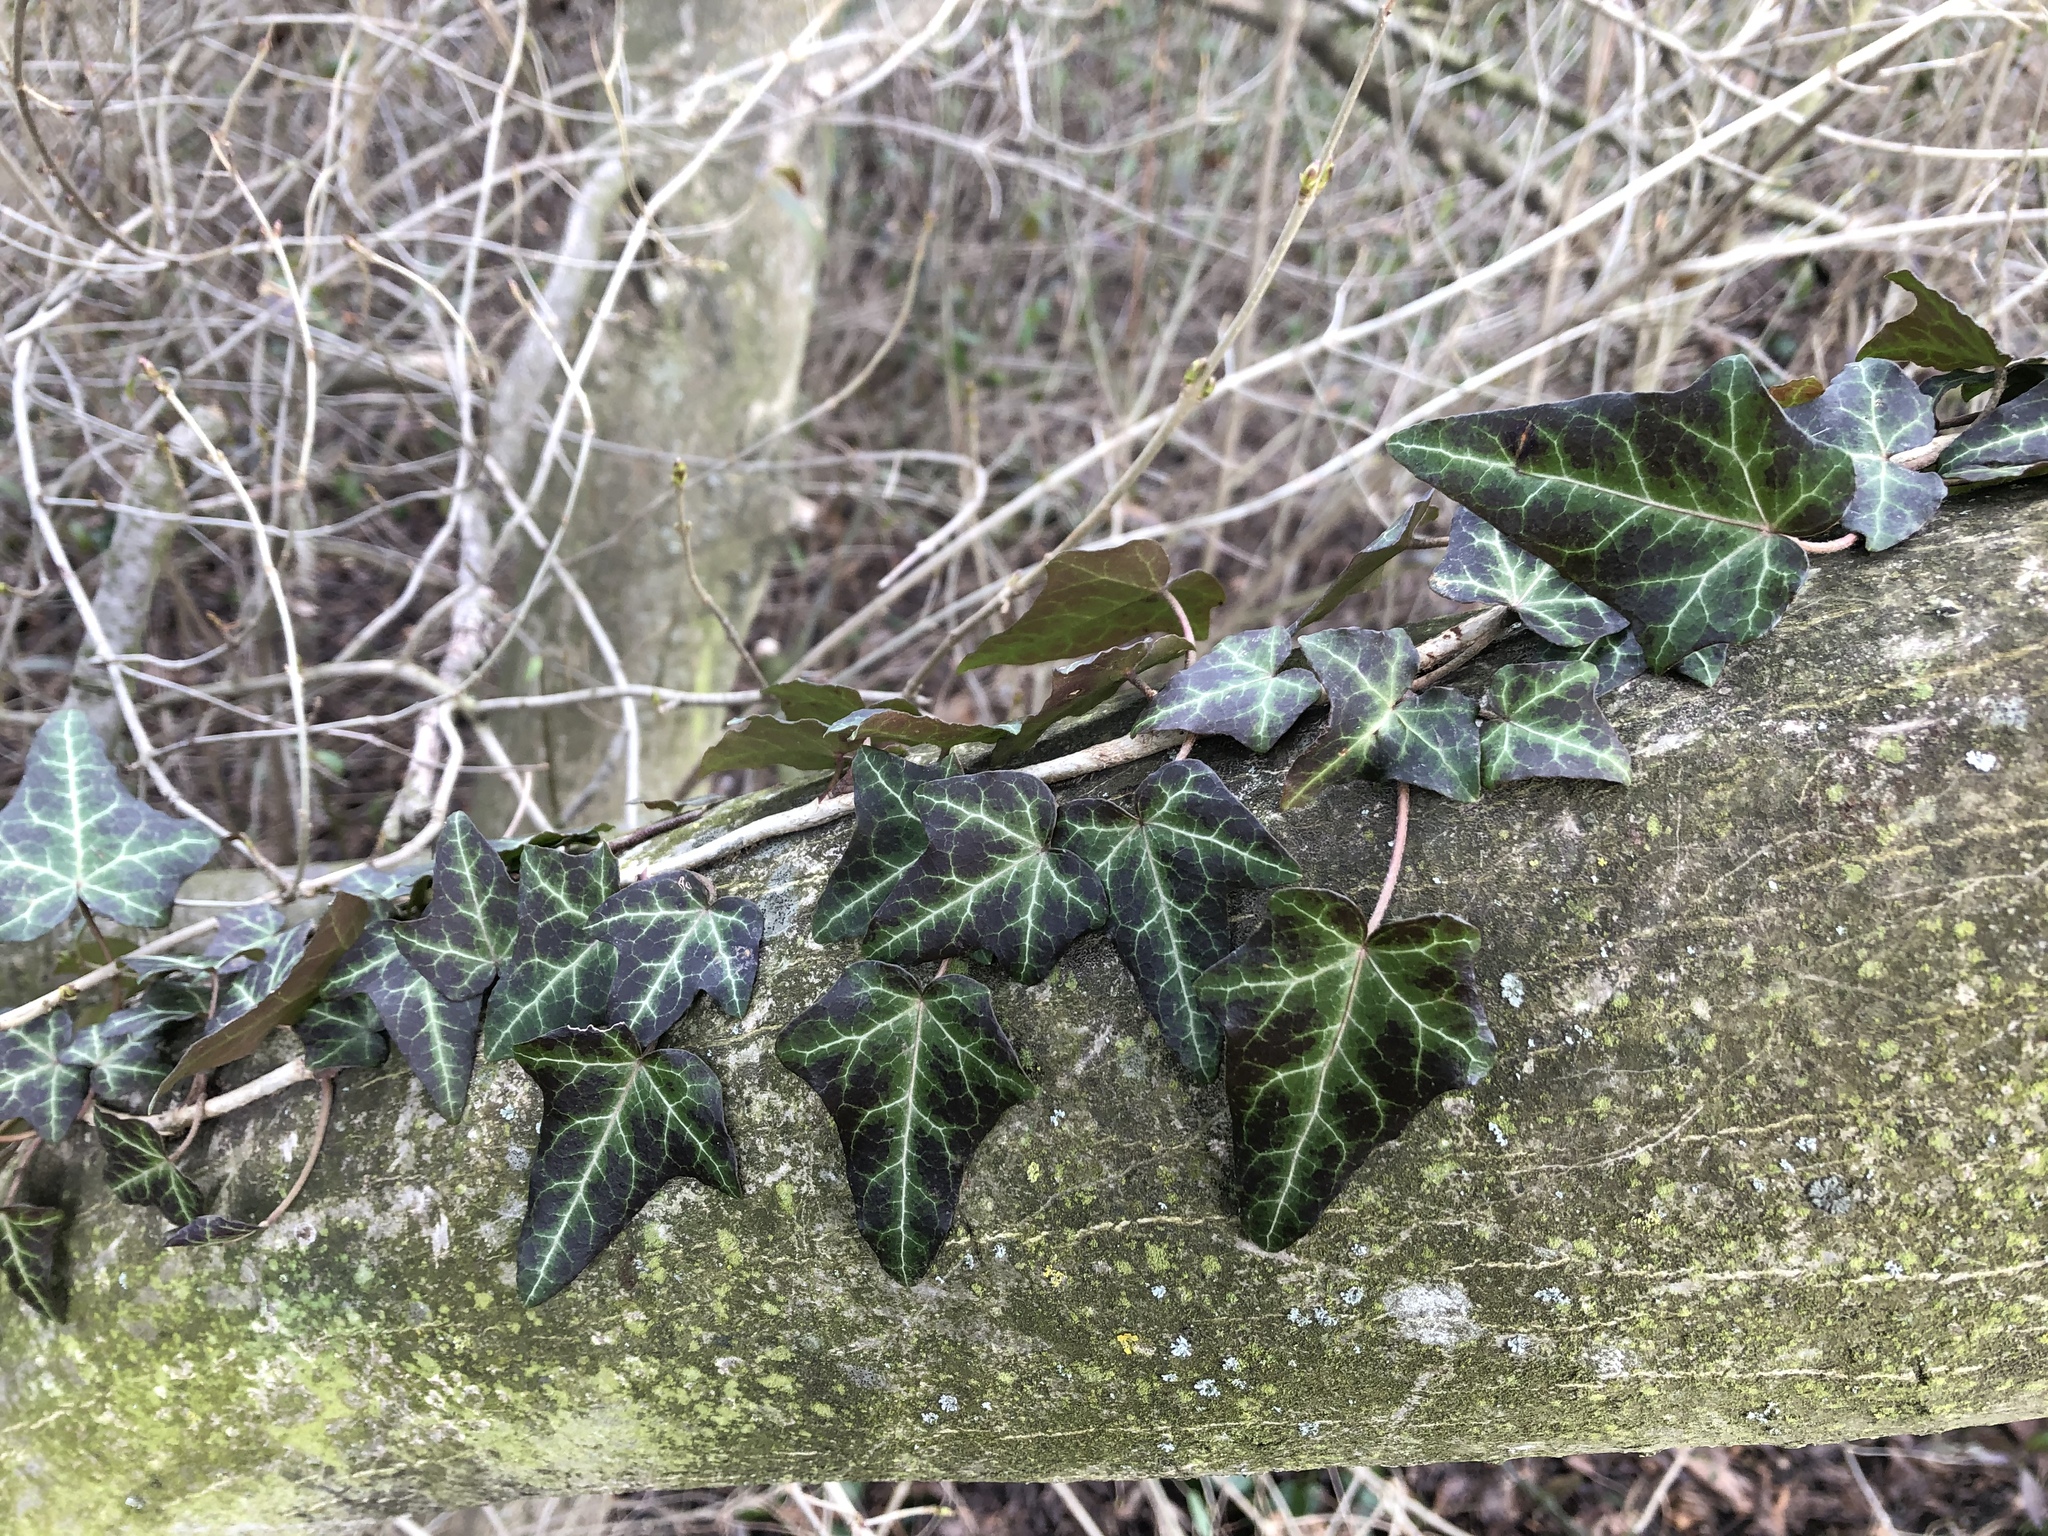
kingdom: Plantae
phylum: Tracheophyta
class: Magnoliopsida
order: Apiales
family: Araliaceae
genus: Hedera
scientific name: Hedera helix
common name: Ivy
